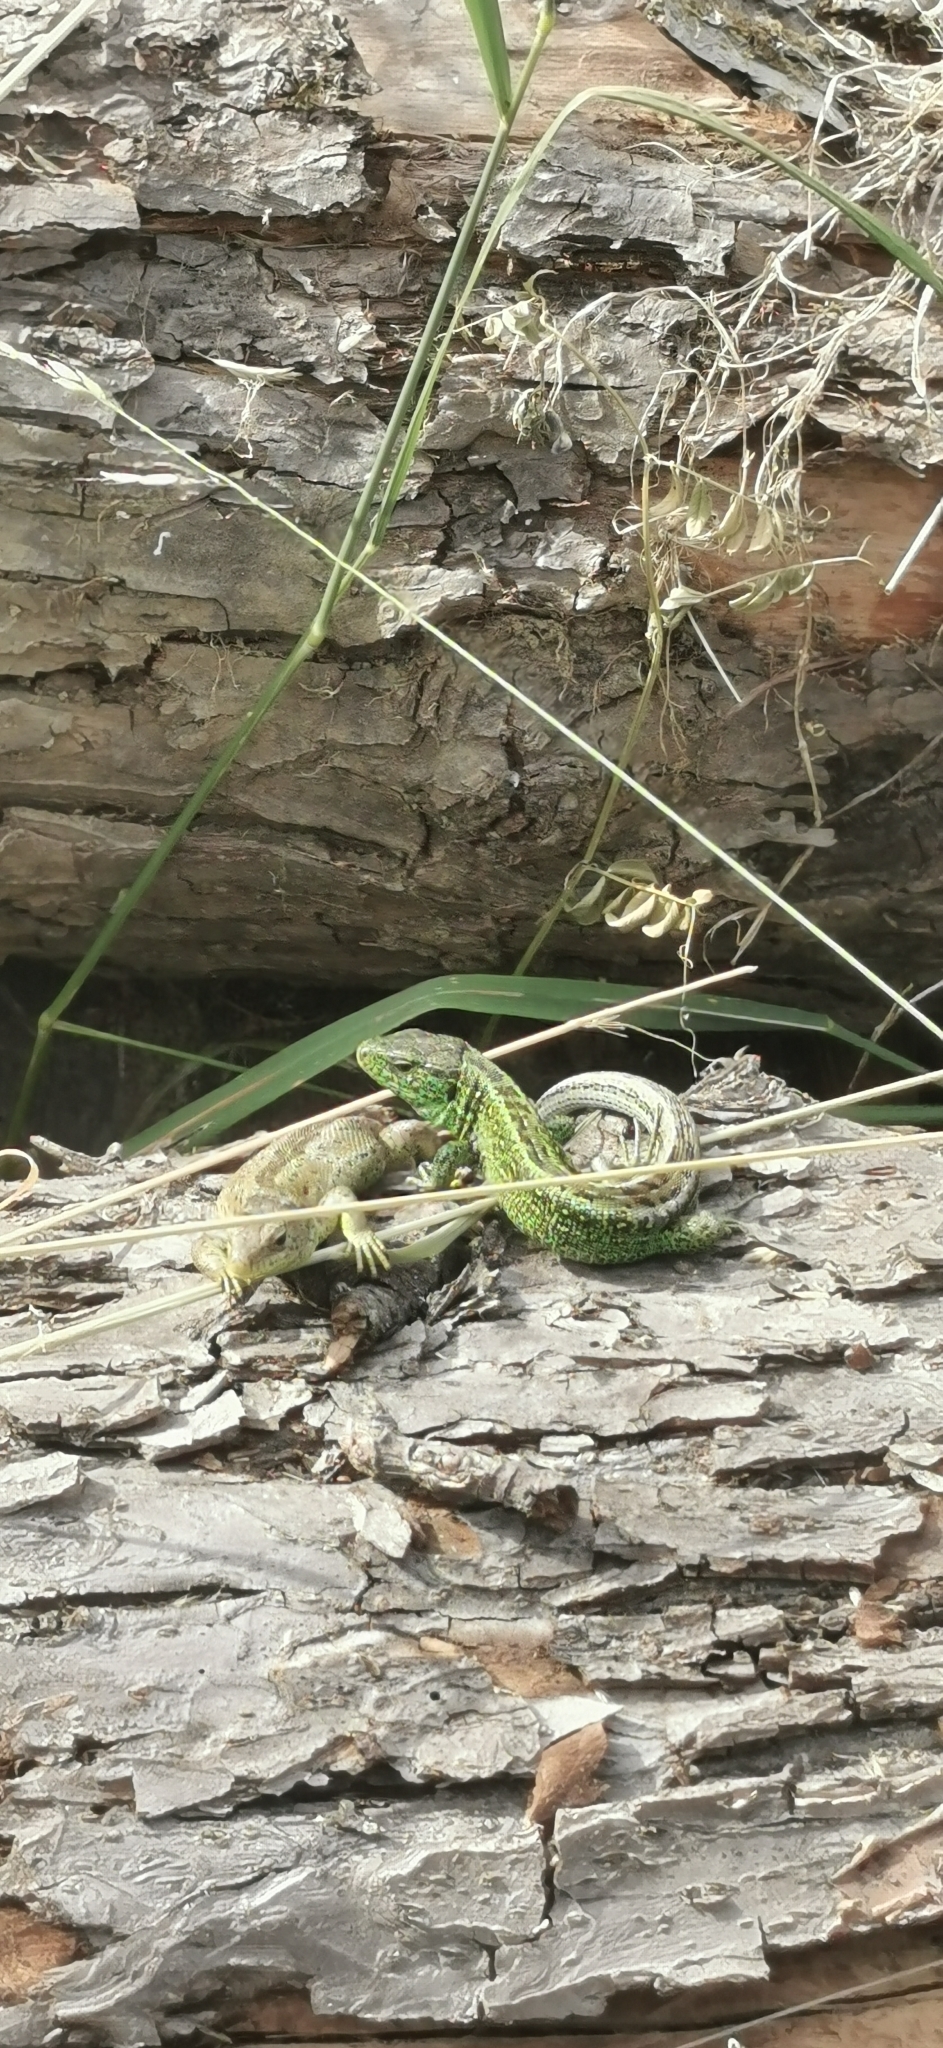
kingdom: Animalia
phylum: Chordata
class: Squamata
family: Lacertidae
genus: Lacerta
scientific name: Lacerta agilis
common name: Sand lizard
